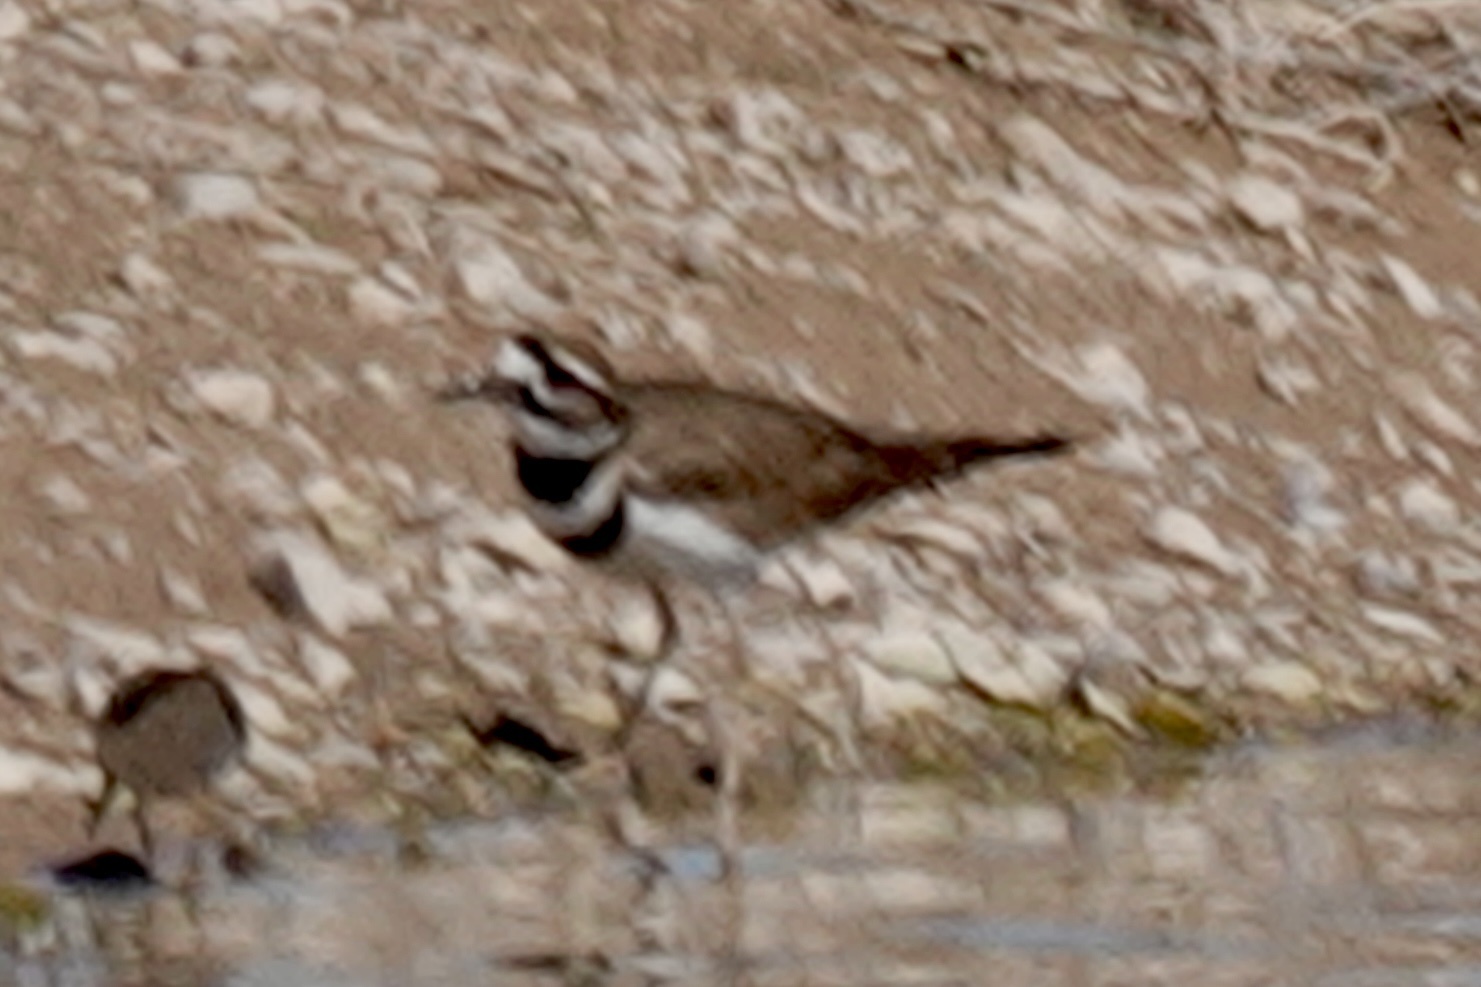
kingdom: Animalia
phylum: Chordata
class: Aves
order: Charadriiformes
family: Charadriidae
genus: Charadrius
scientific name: Charadrius vociferus
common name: Killdeer
